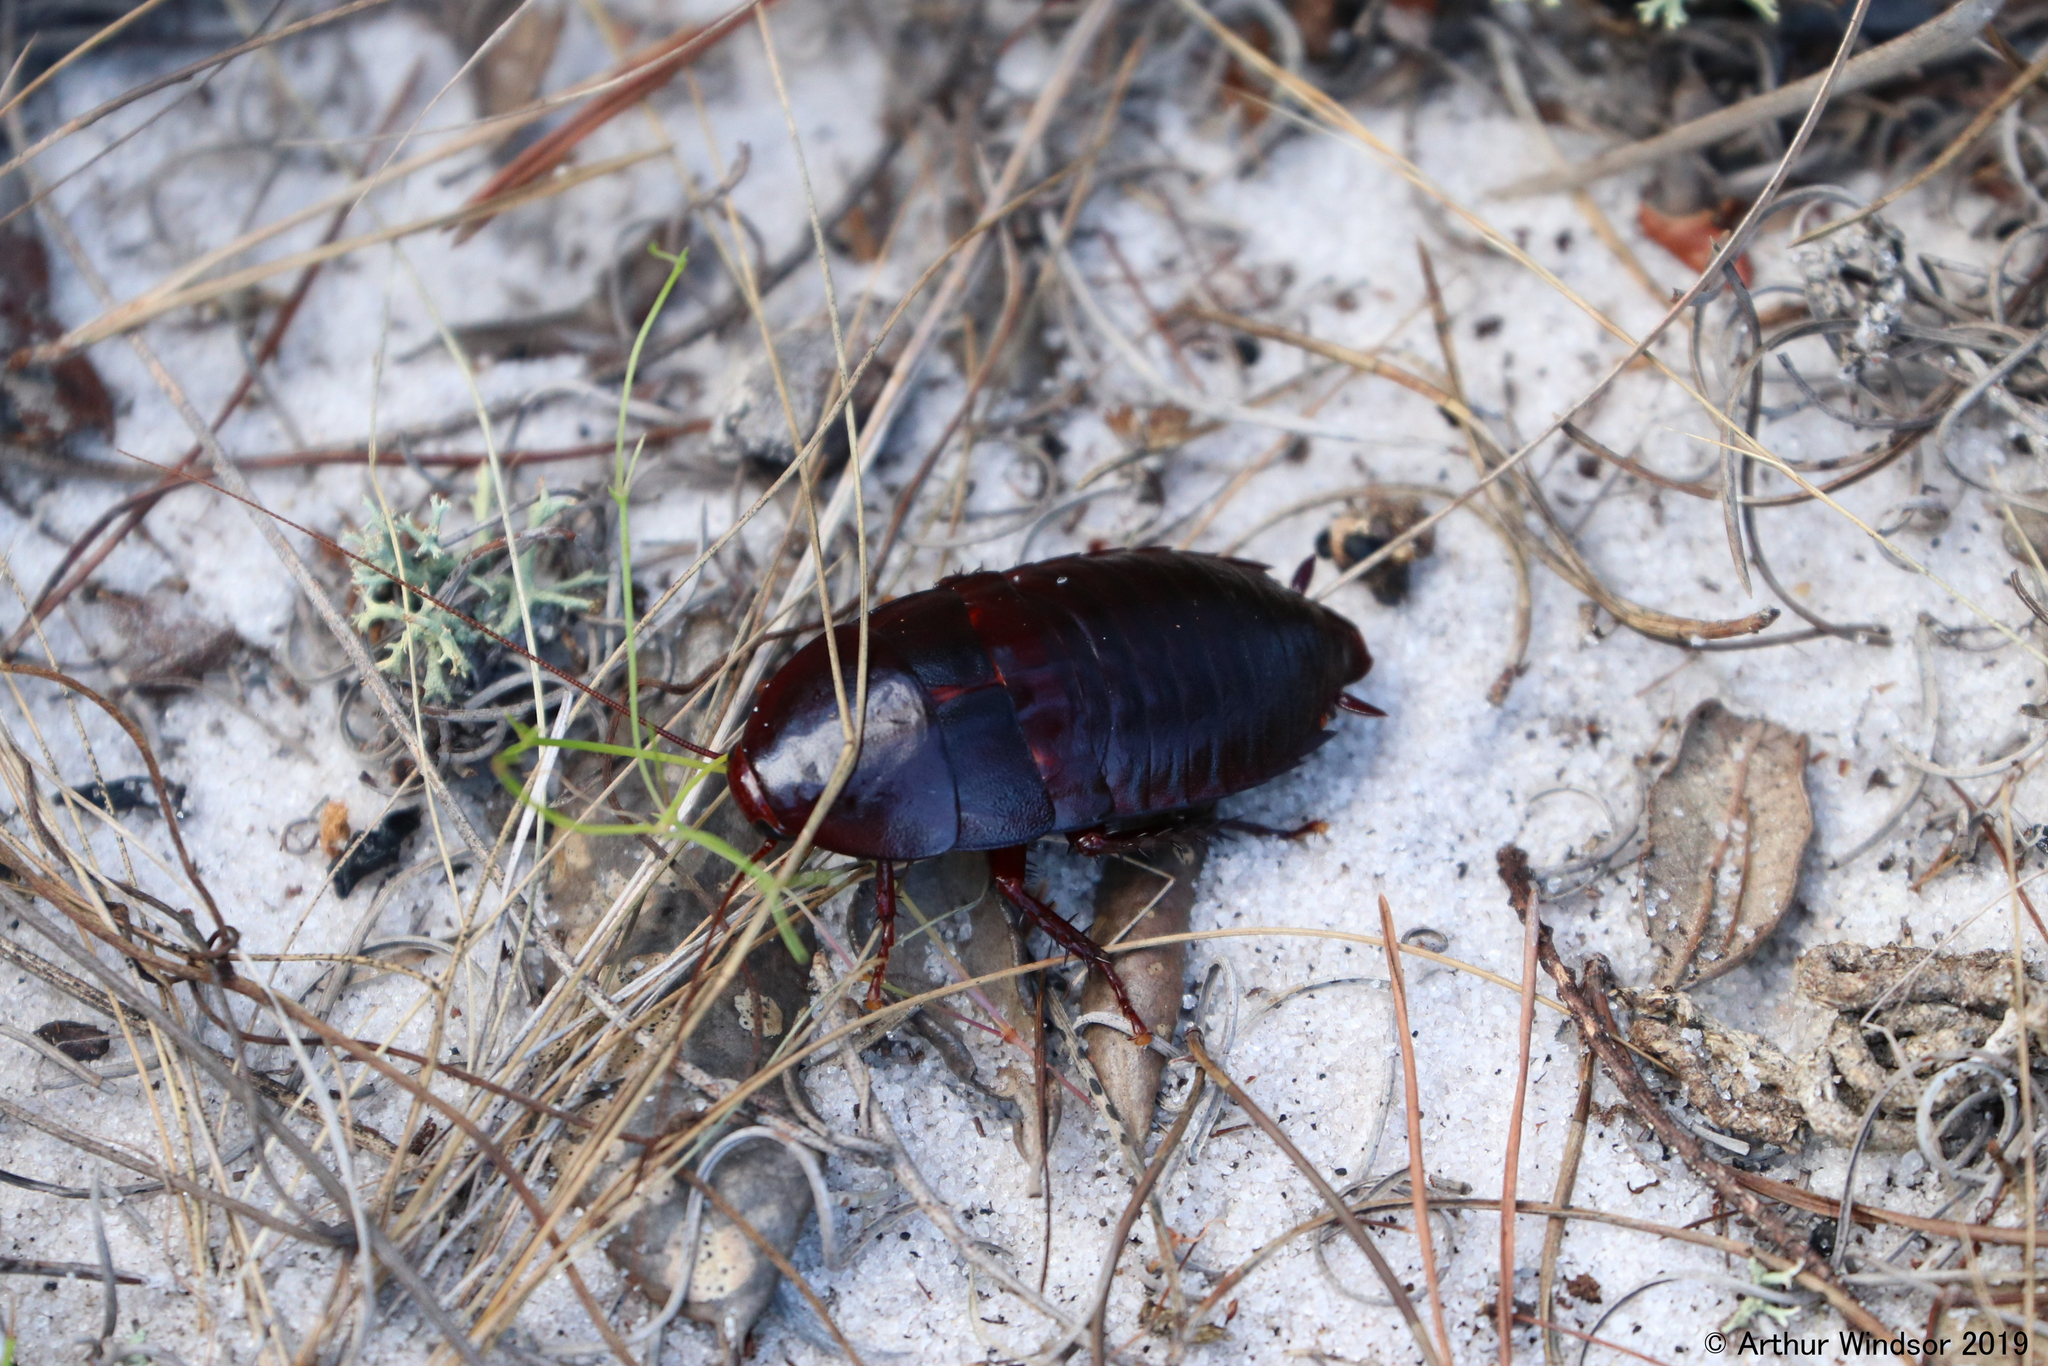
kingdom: Animalia
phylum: Arthropoda
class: Insecta
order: Blattodea
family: Blattidae
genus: Eurycotis
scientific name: Eurycotis floridana
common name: Florida cockroach
